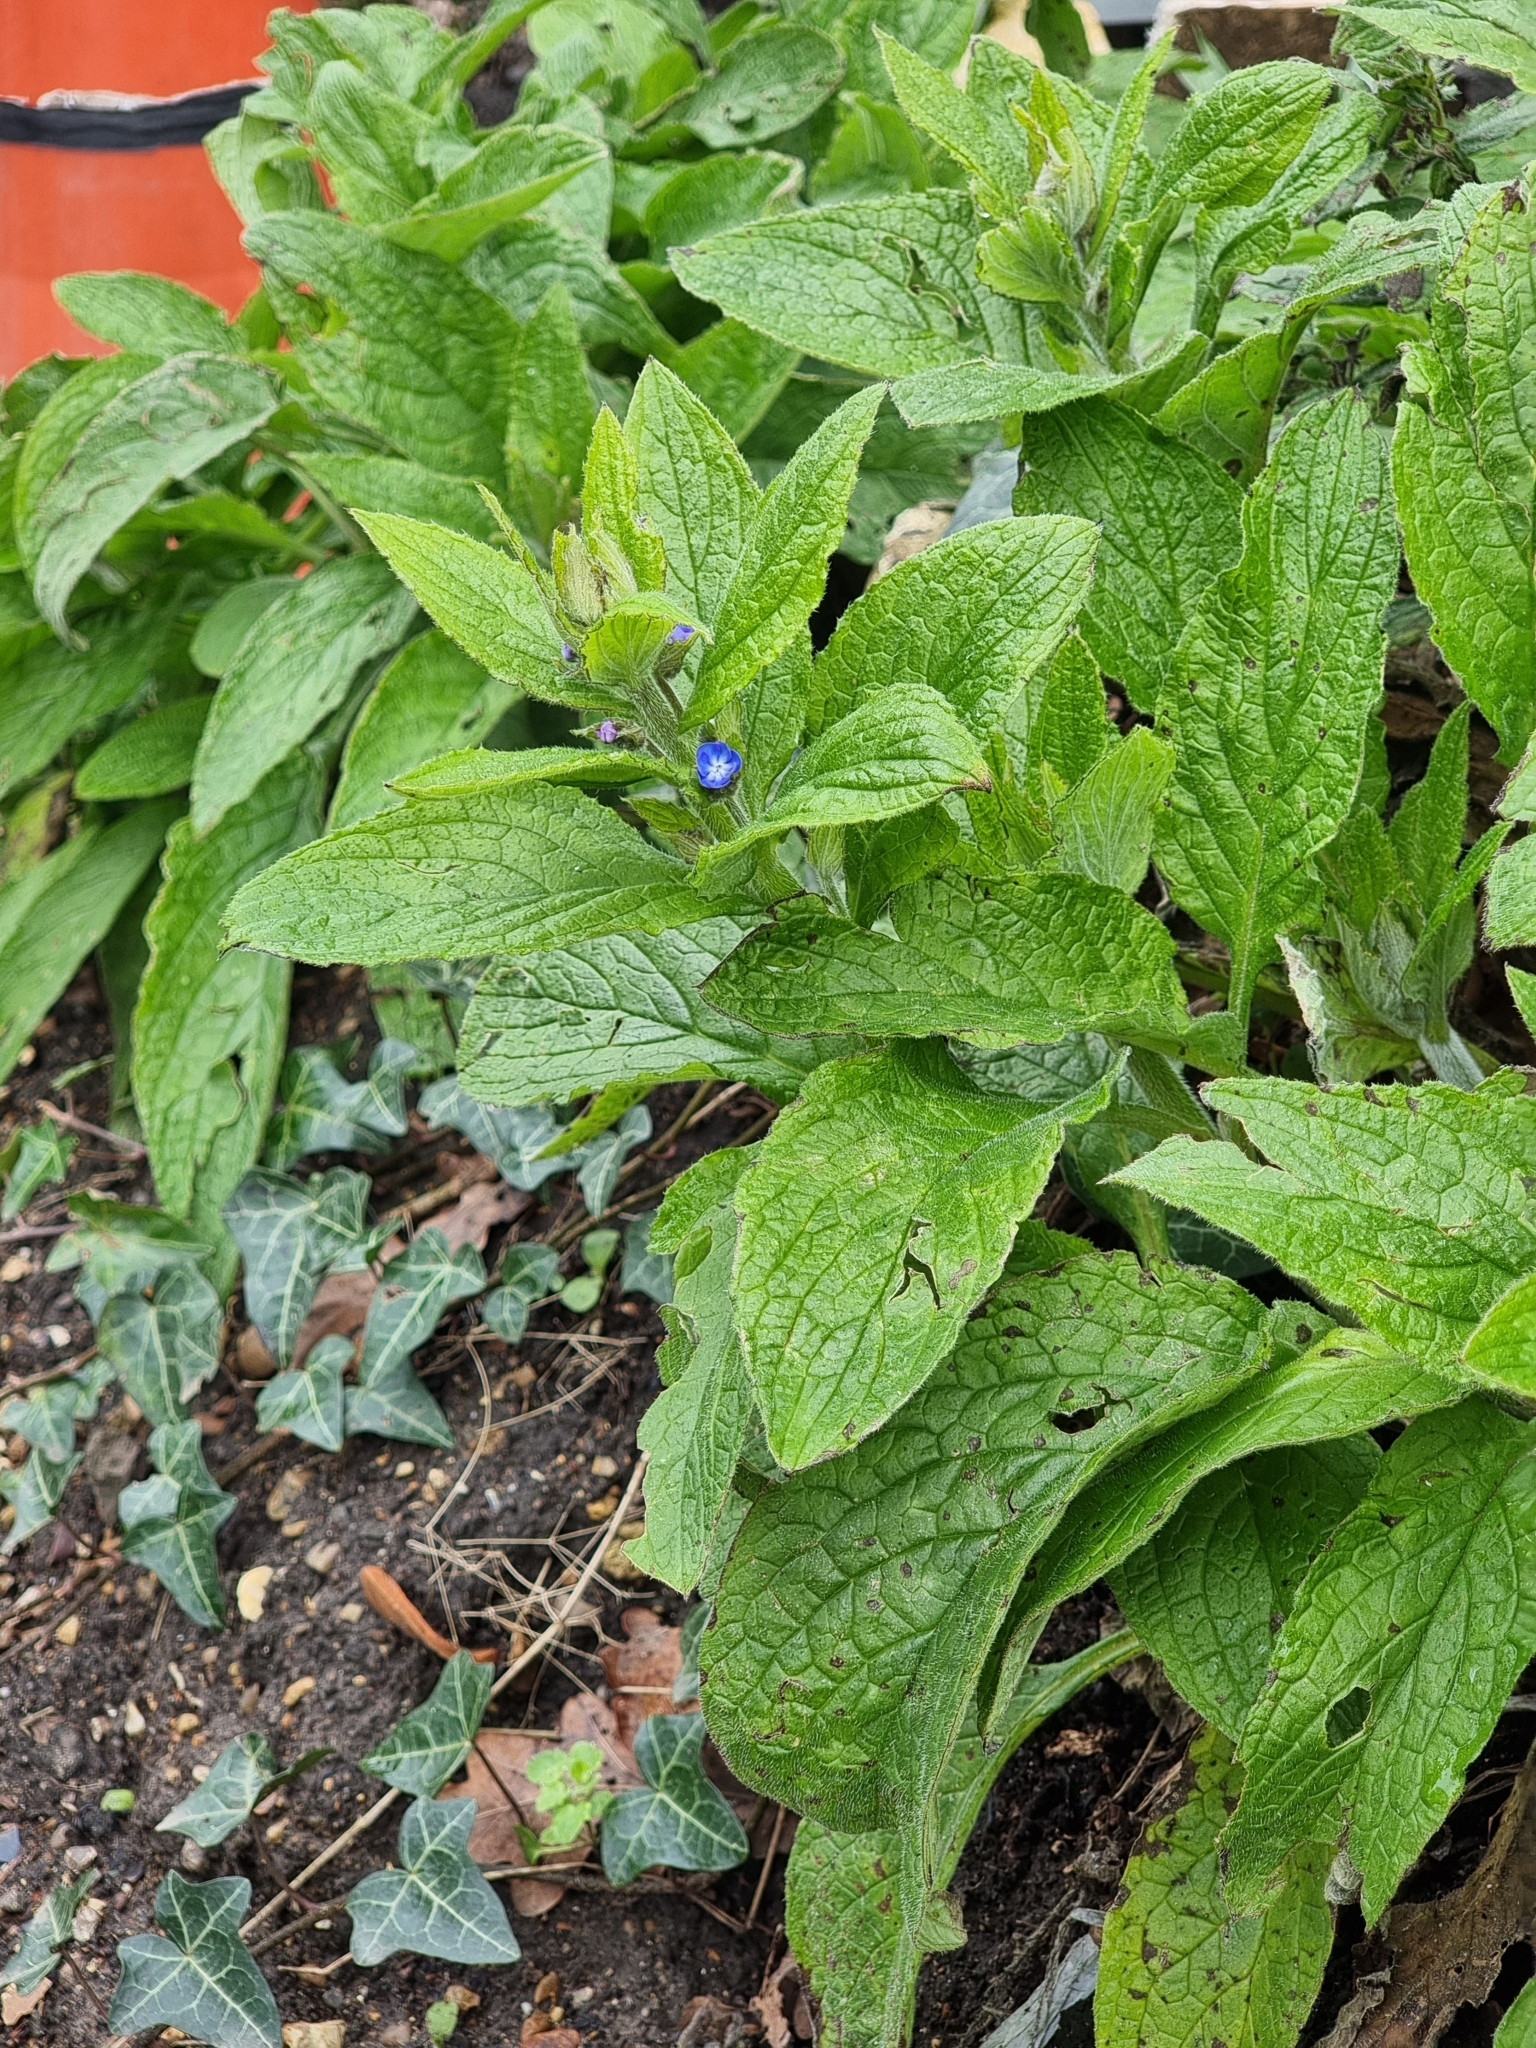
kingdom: Plantae
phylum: Tracheophyta
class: Magnoliopsida
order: Boraginales
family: Boraginaceae
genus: Pentaglottis
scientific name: Pentaglottis sempervirens
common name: Green alkanet
